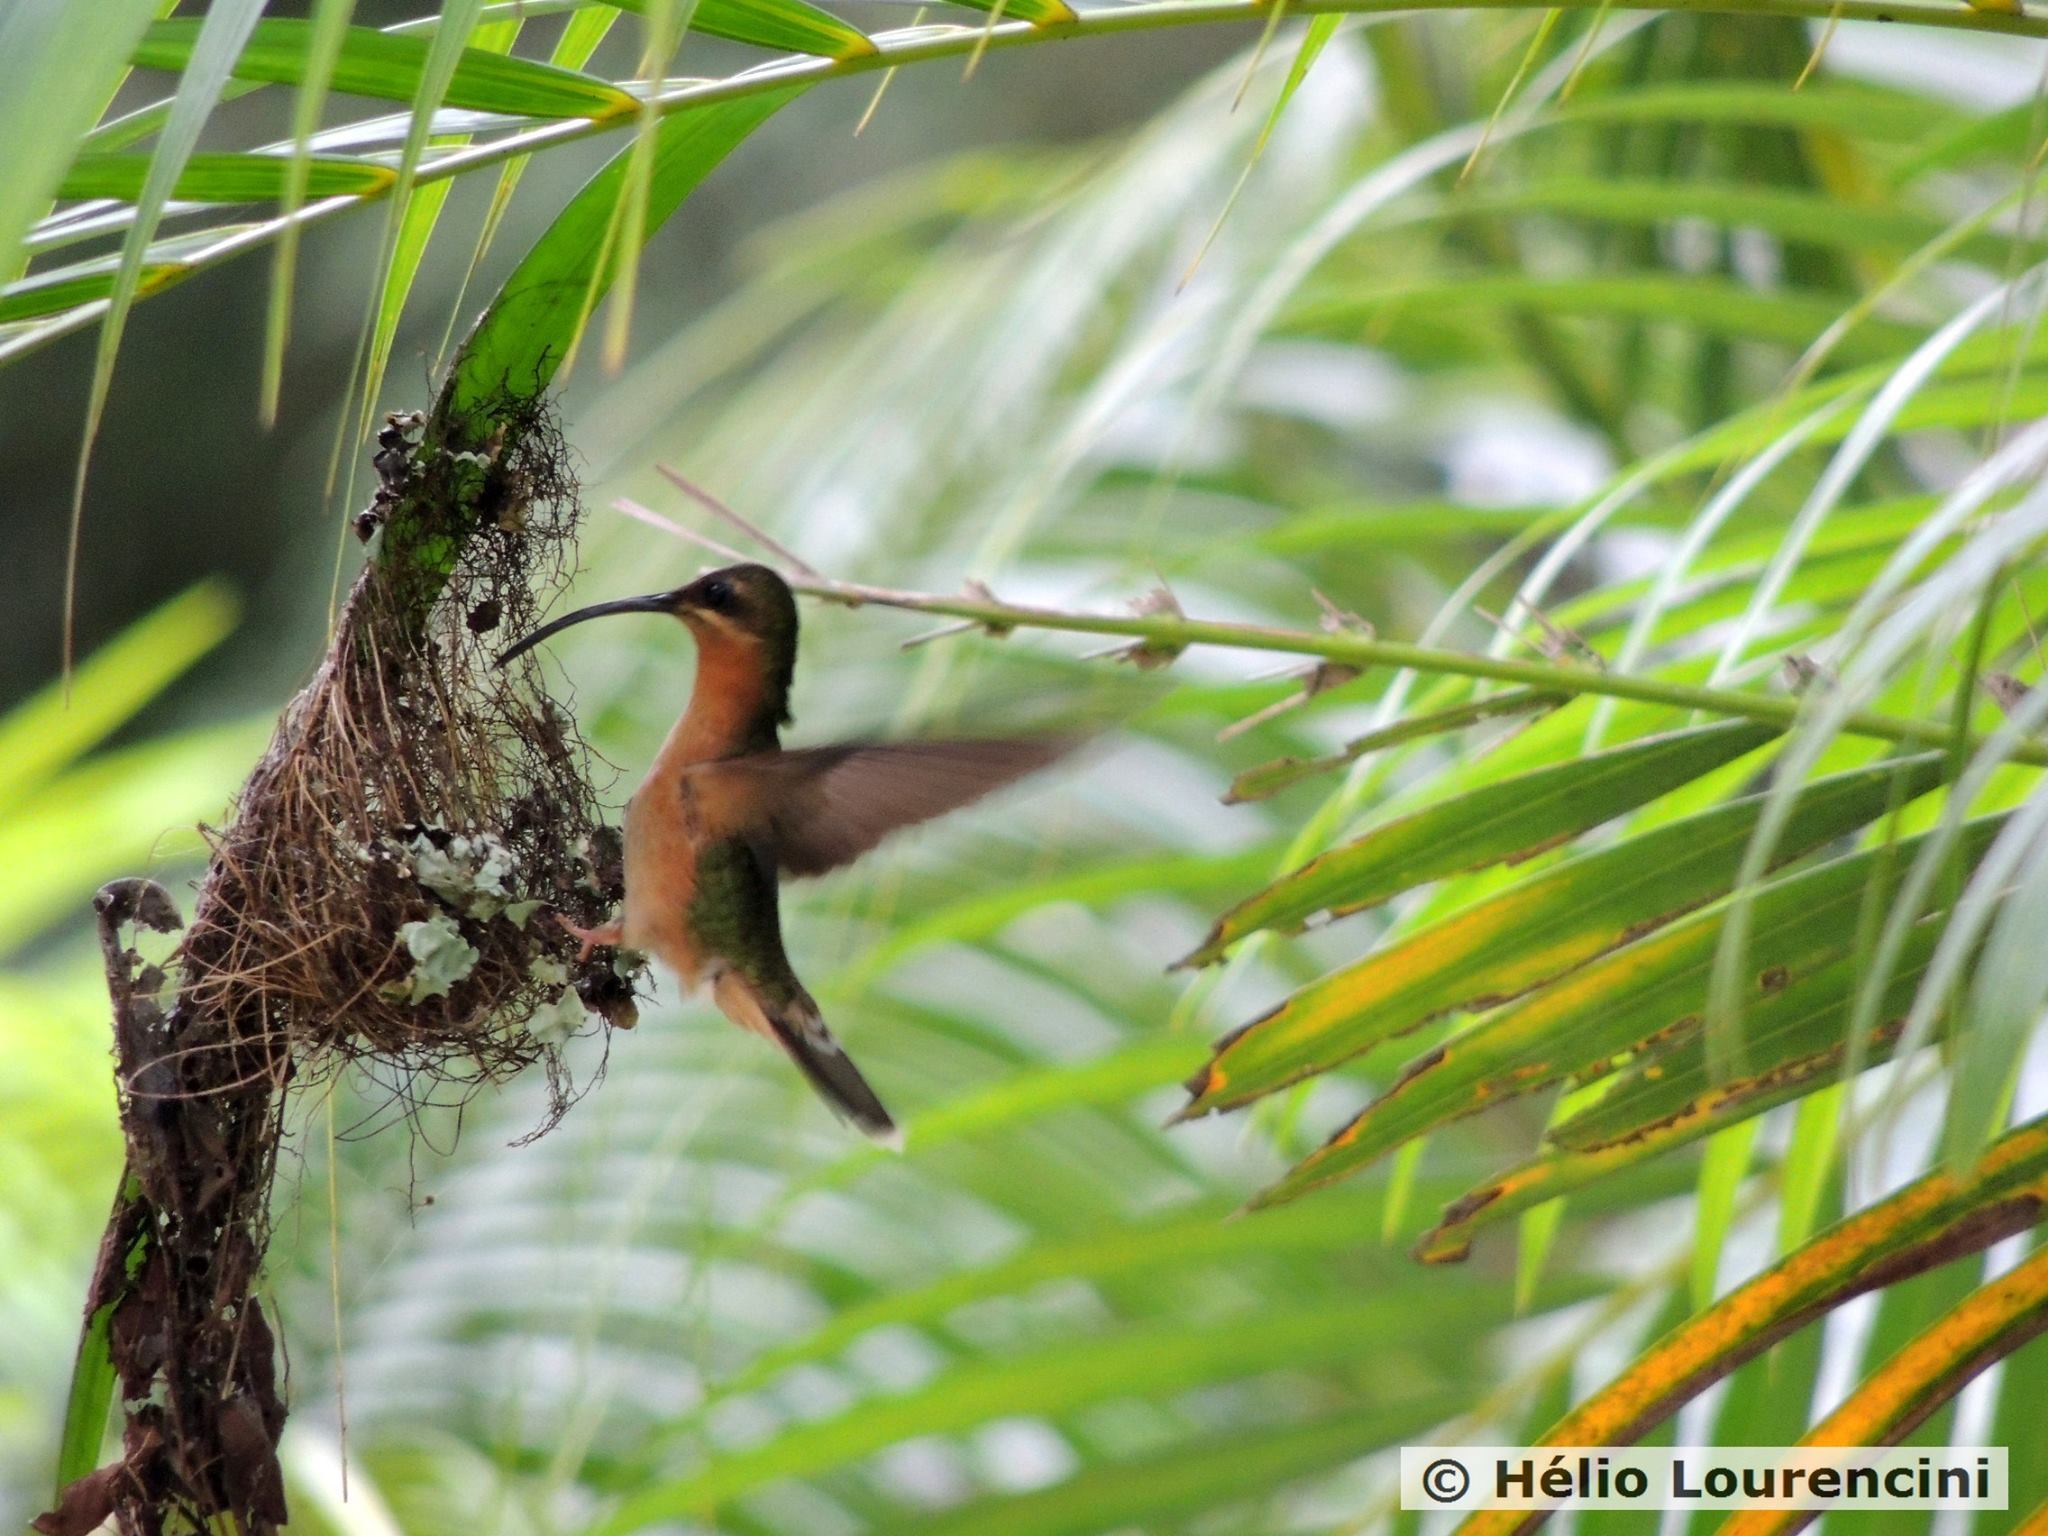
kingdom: Animalia
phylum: Chordata
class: Aves
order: Apodiformes
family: Trochilidae
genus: Glaucis
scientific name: Glaucis hirsutus
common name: Rufous-breasted hermit
